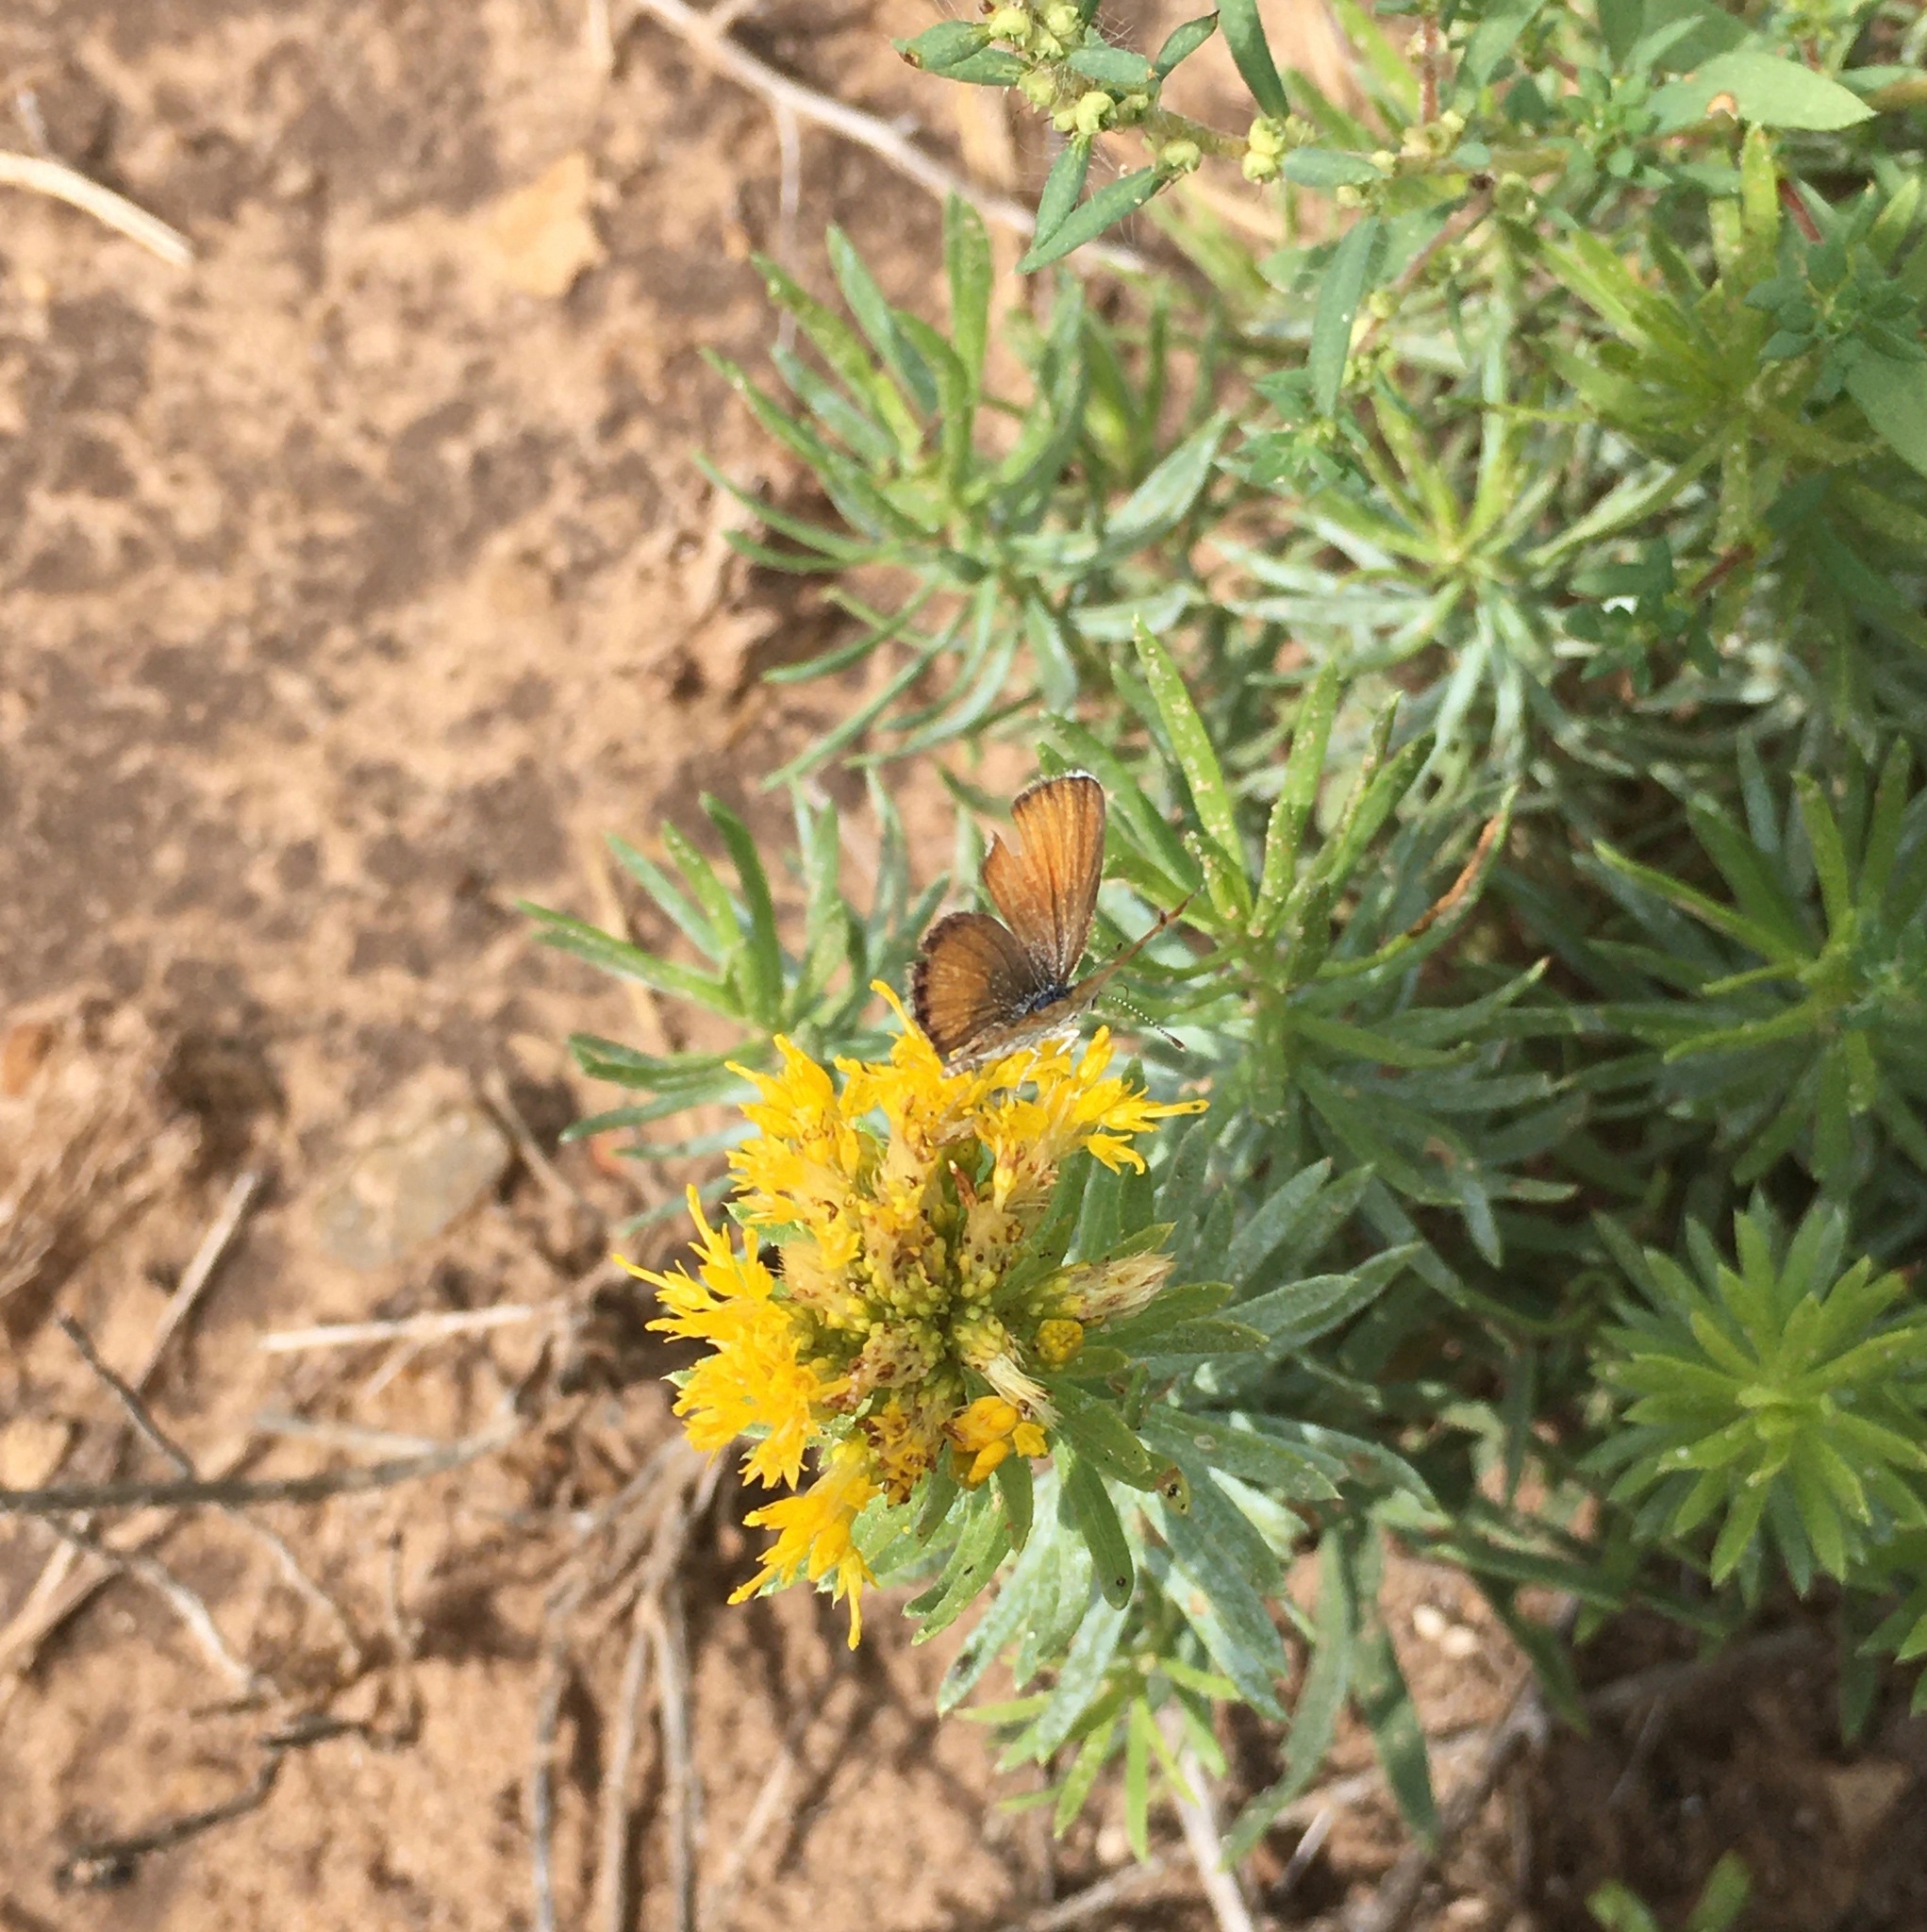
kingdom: Animalia
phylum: Arthropoda
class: Insecta
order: Lepidoptera
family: Lycaenidae
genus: Brephidium
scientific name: Brephidium exilis
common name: Pygmy blue
